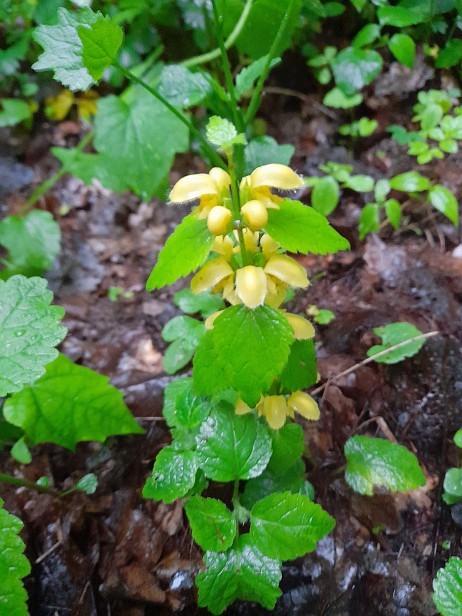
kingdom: Plantae
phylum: Tracheophyta
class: Magnoliopsida
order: Lamiales
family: Lamiaceae
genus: Lamium
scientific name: Lamium galeobdolon
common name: Yellow archangel
